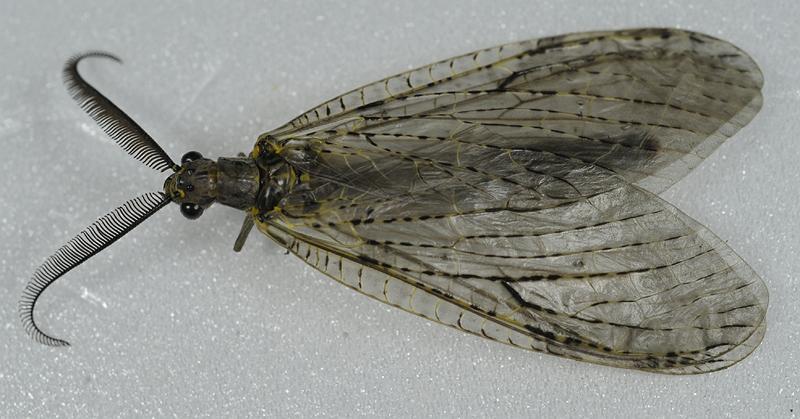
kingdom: Animalia
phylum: Arthropoda
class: Insecta
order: Megaloptera
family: Corydalidae
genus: Chauliodes
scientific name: Chauliodes rastricornis
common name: Spring fishfly
